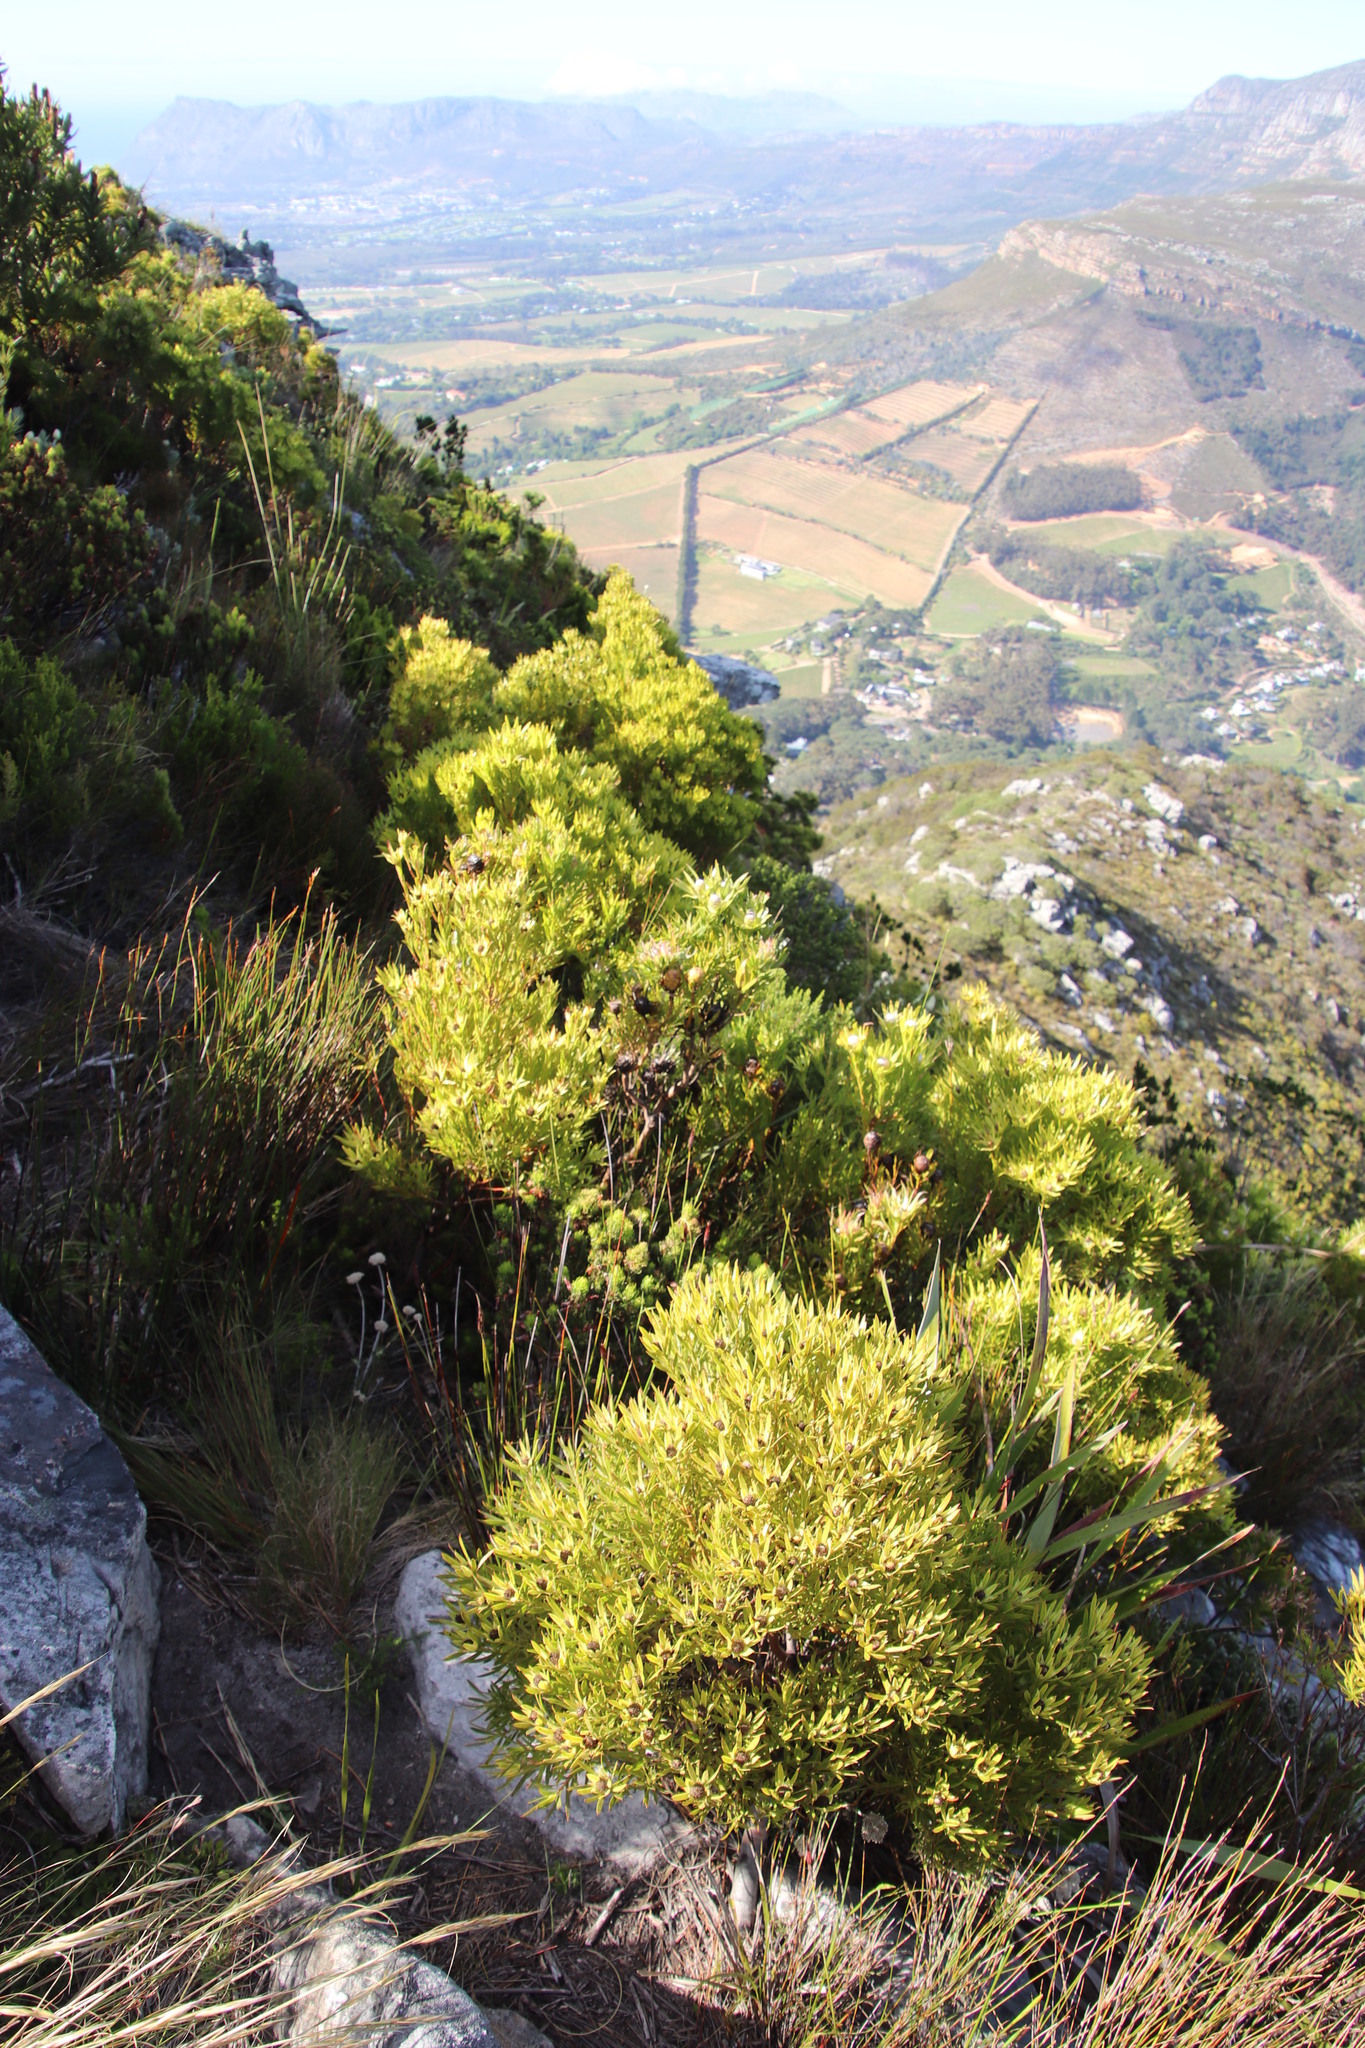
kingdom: Plantae
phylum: Tracheophyta
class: Magnoliopsida
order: Proteales
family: Proteaceae
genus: Leucadendron
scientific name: Leucadendron xanthoconus
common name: Sickle-leaf conebush
